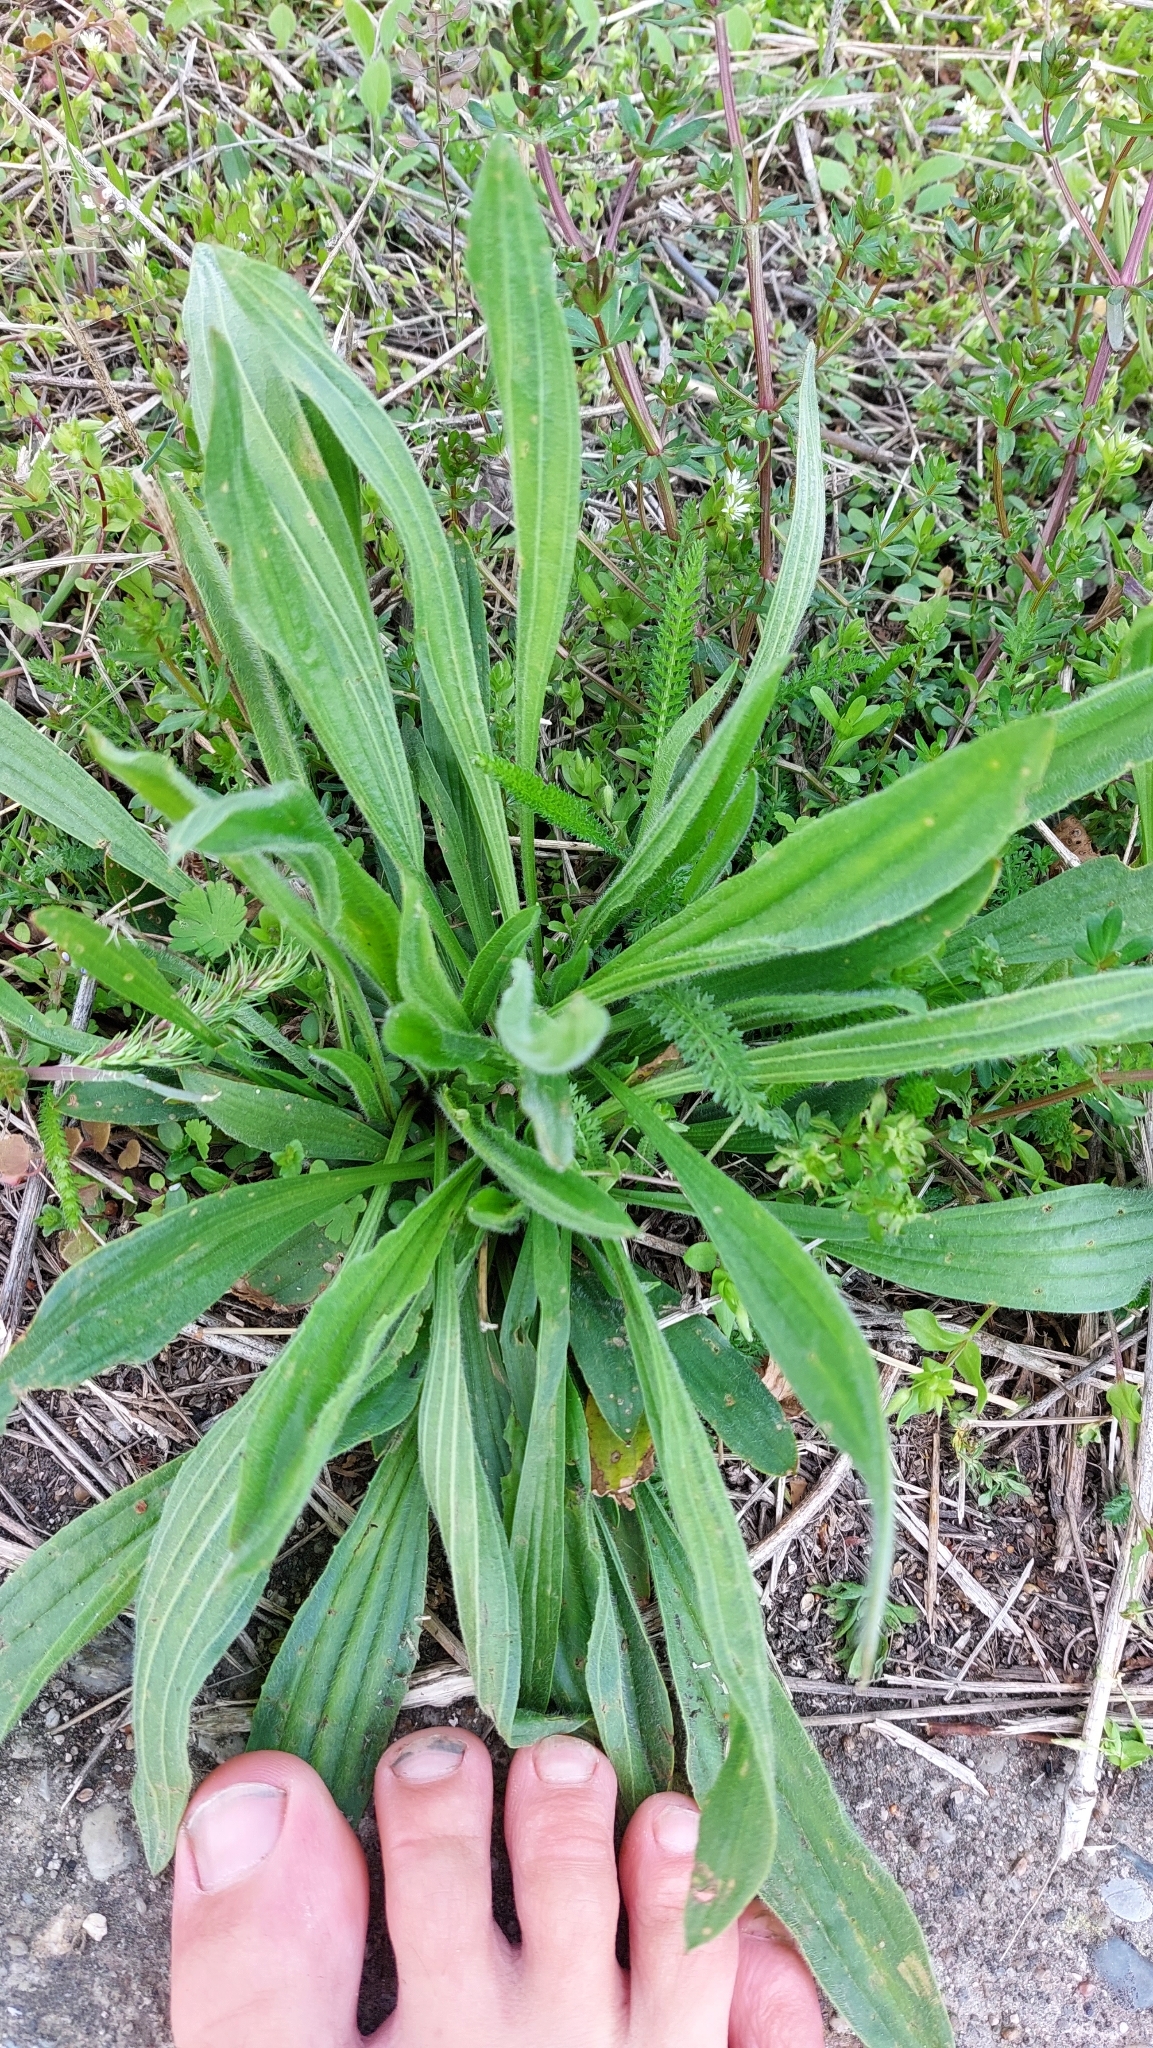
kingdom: Plantae
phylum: Tracheophyta
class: Magnoliopsida
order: Lamiales
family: Plantaginaceae
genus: Plantago
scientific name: Plantago lanceolata
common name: Ribwort plantain
